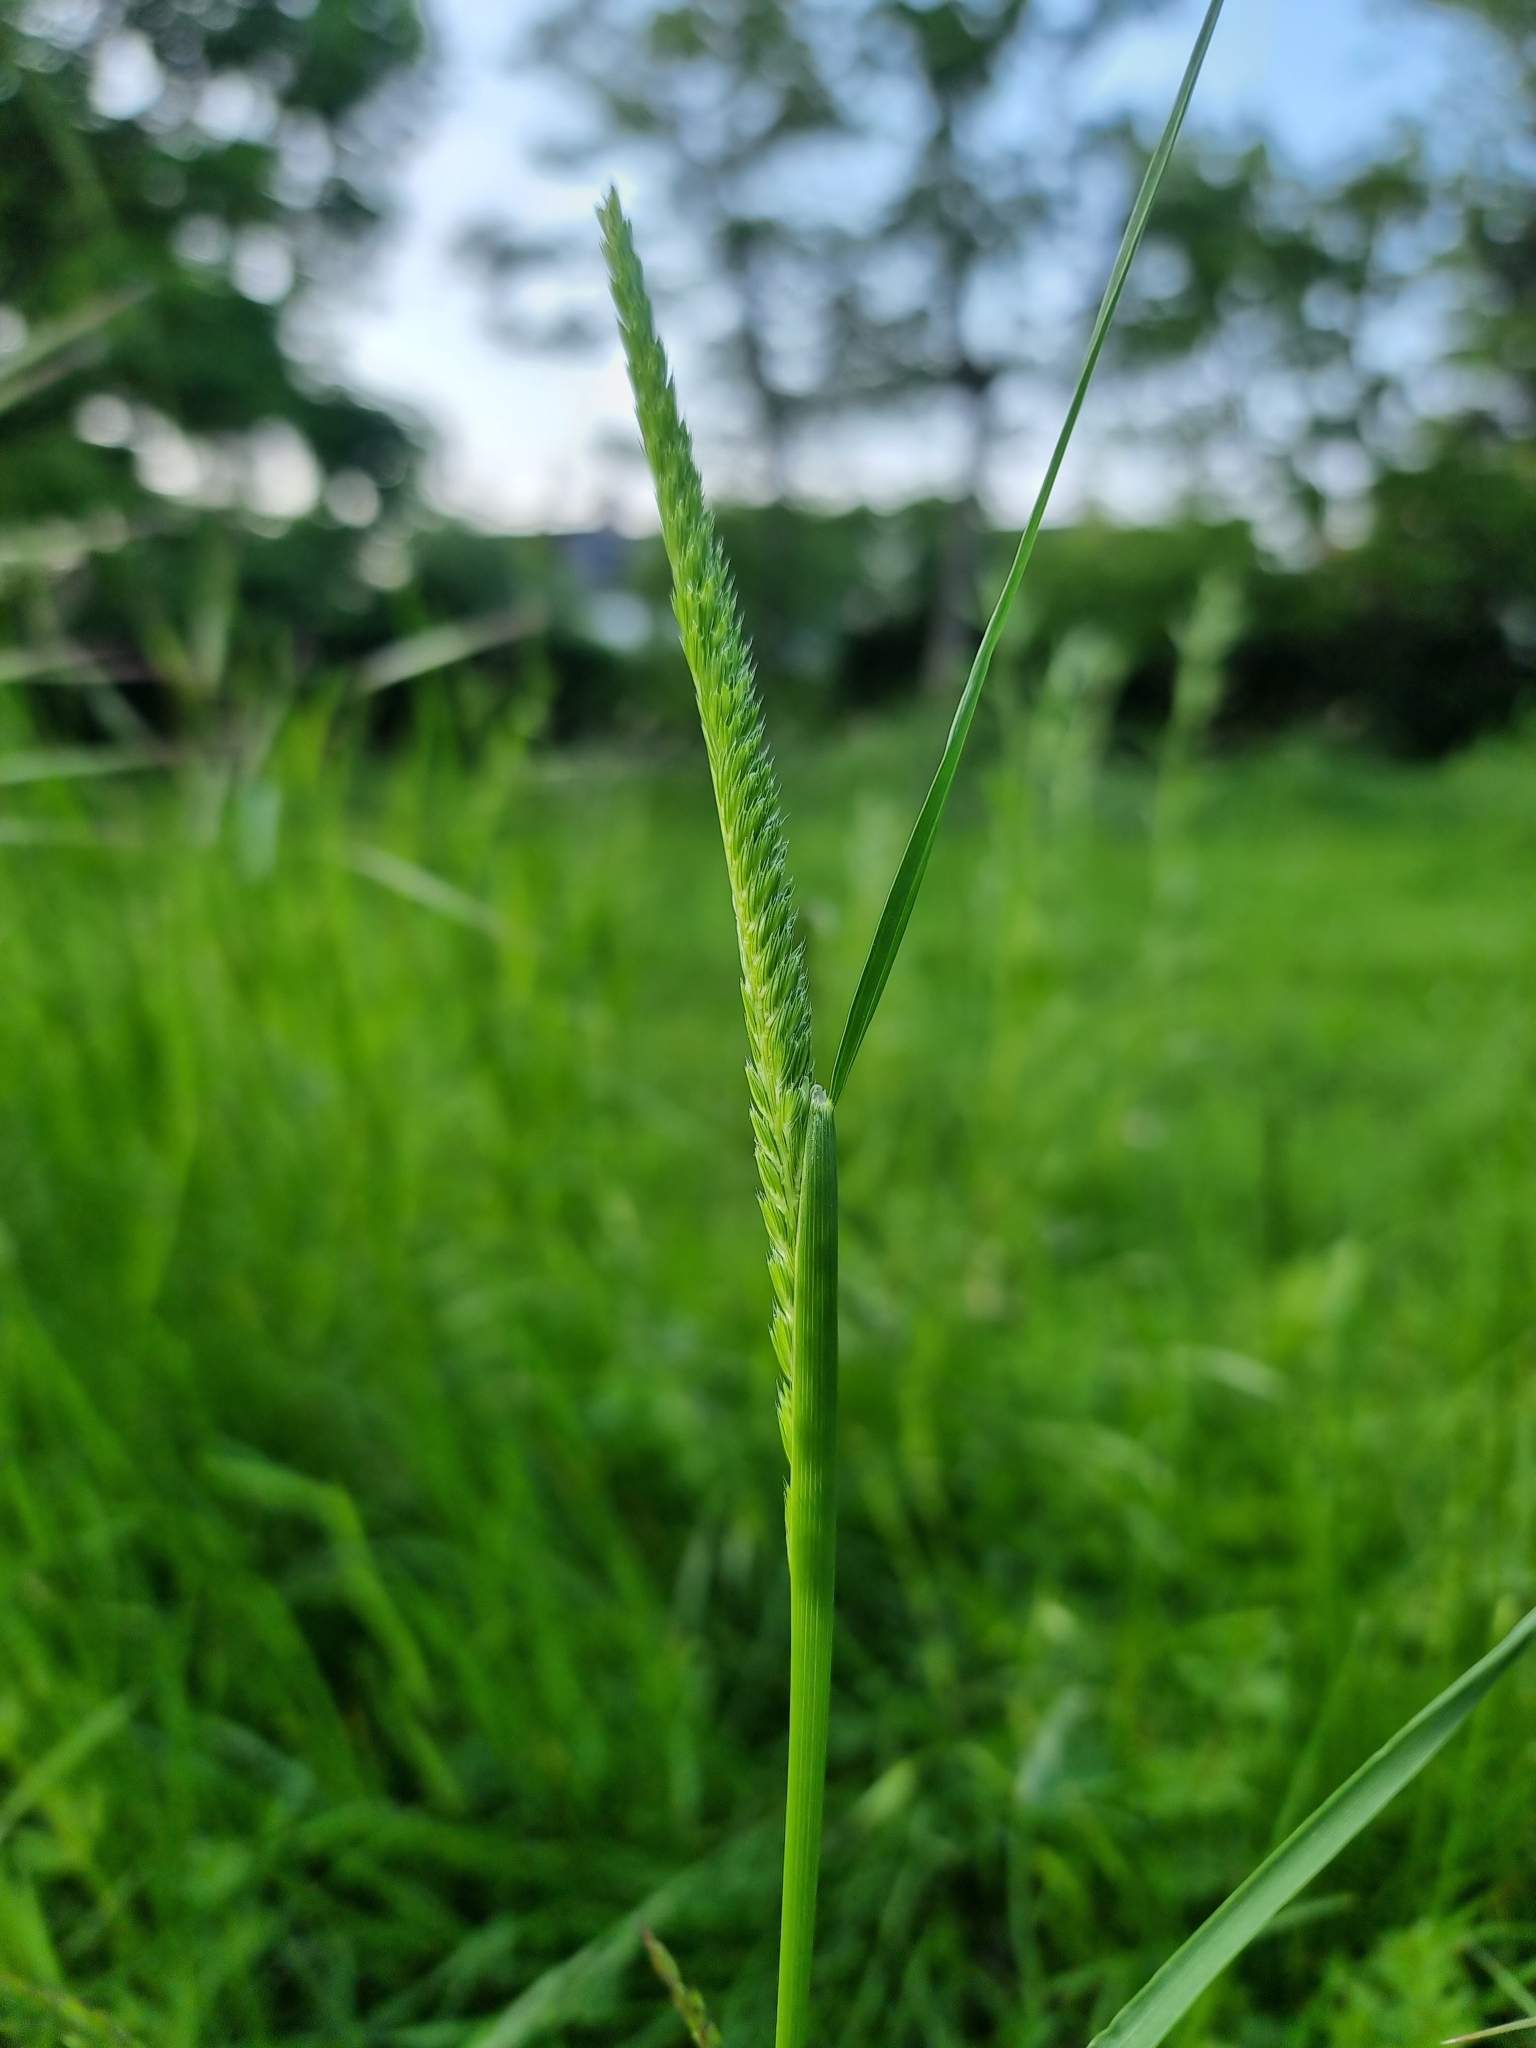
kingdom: Plantae
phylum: Tracheophyta
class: Liliopsida
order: Poales
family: Poaceae
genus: Cynosurus
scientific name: Cynosurus cristatus
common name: Crested dog's-tail
